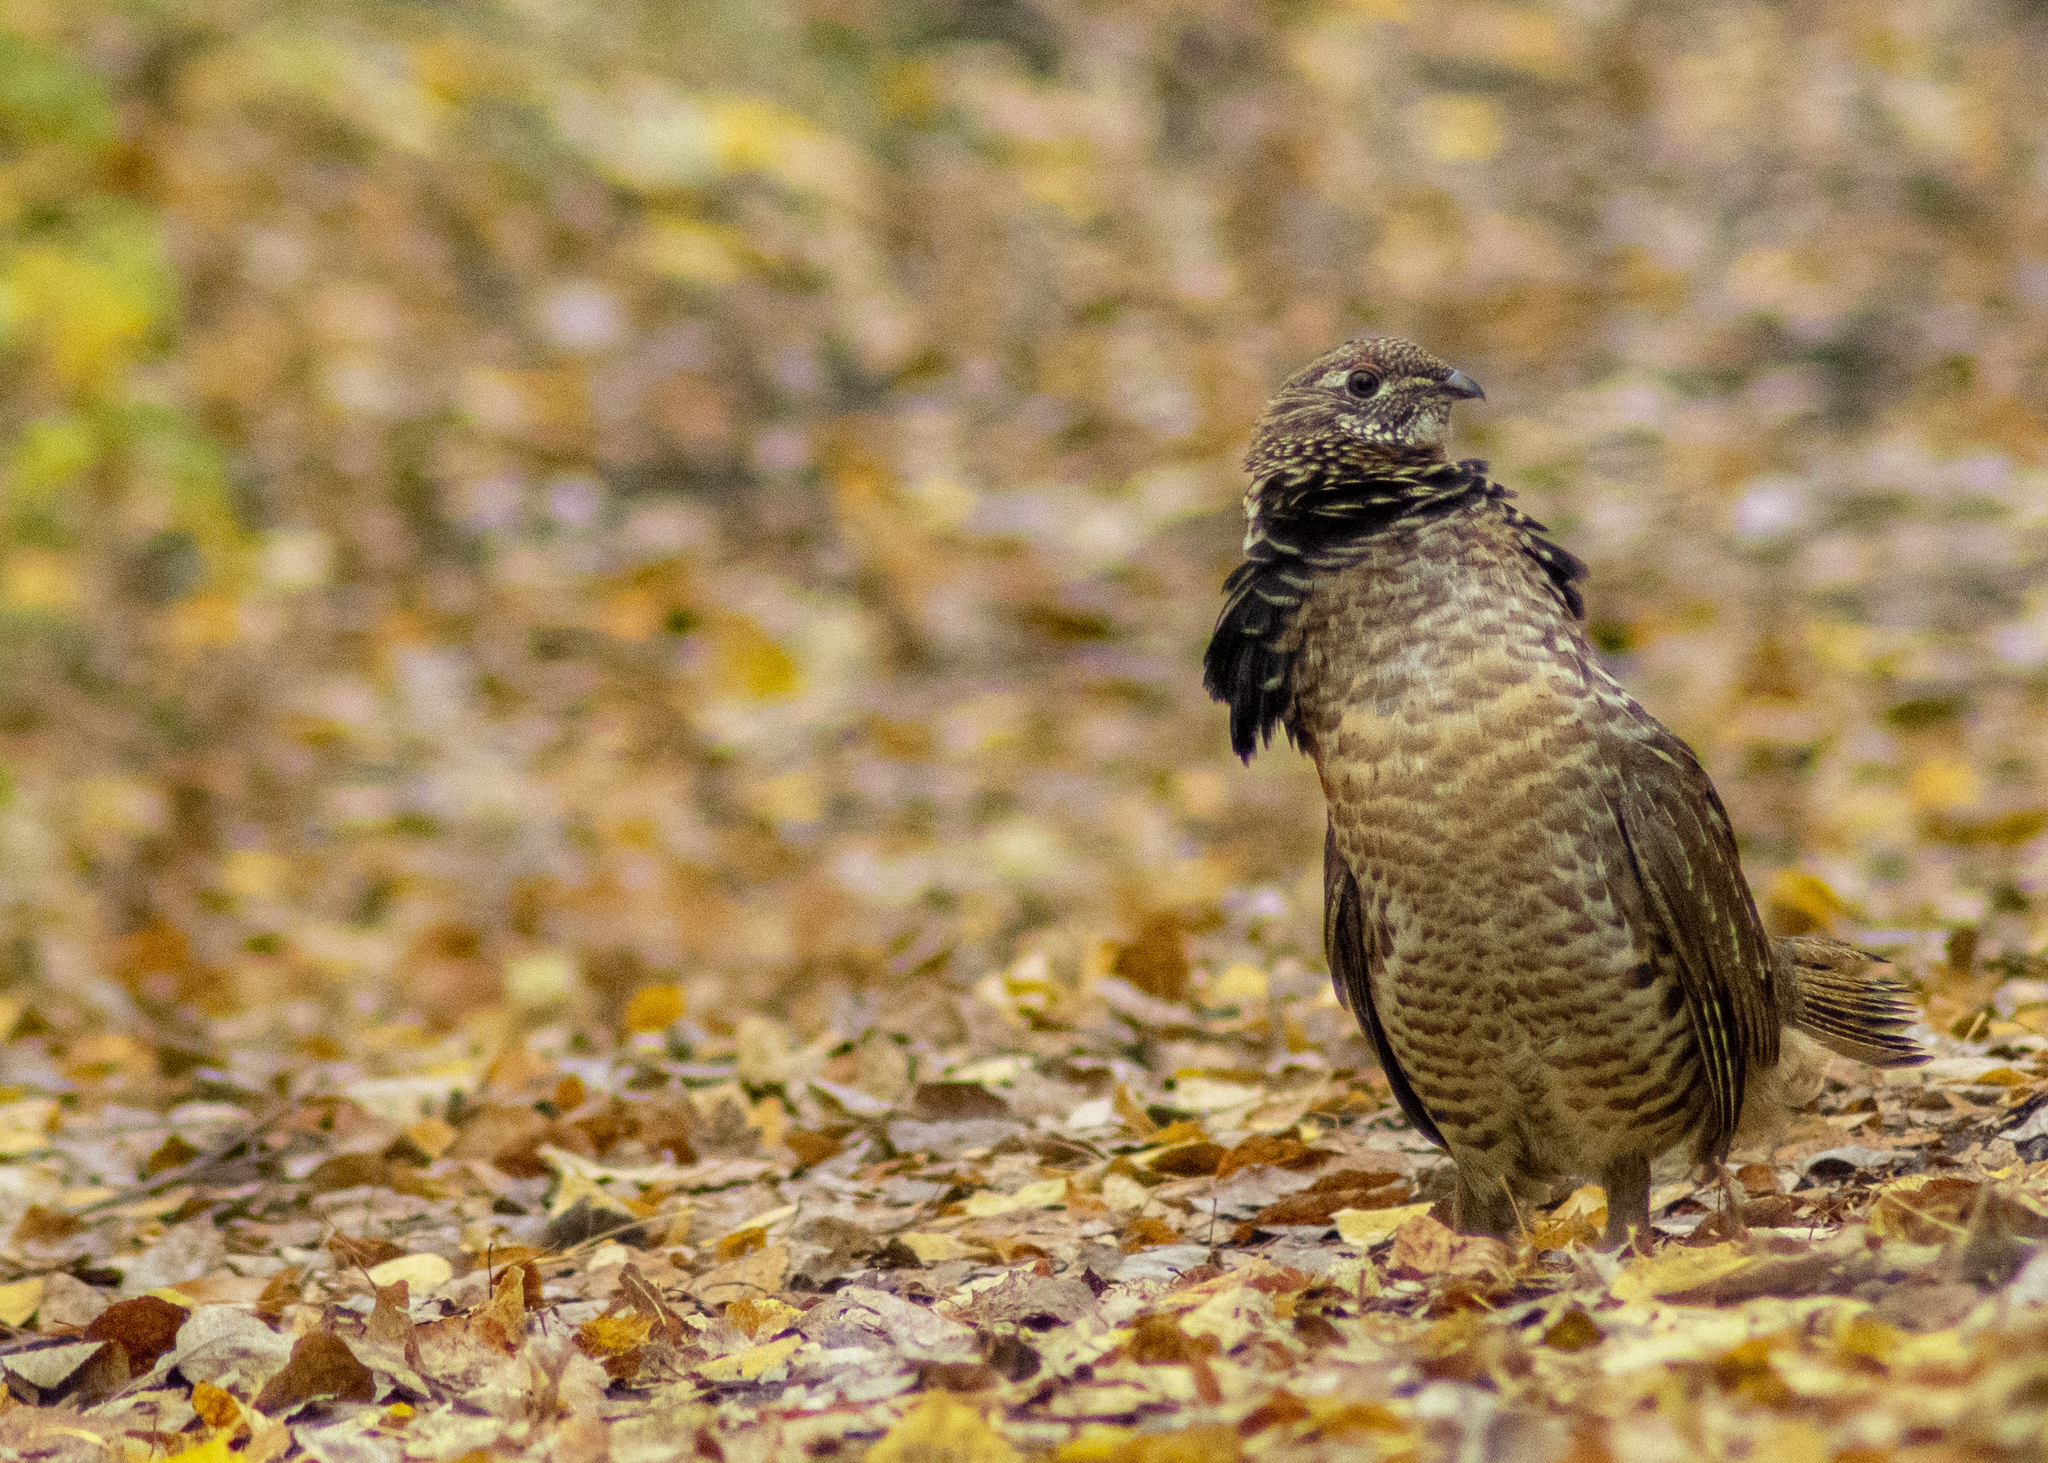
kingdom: Animalia
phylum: Chordata
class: Aves
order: Galliformes
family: Phasianidae
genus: Bonasa
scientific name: Bonasa umbellus
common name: Ruffed grouse
